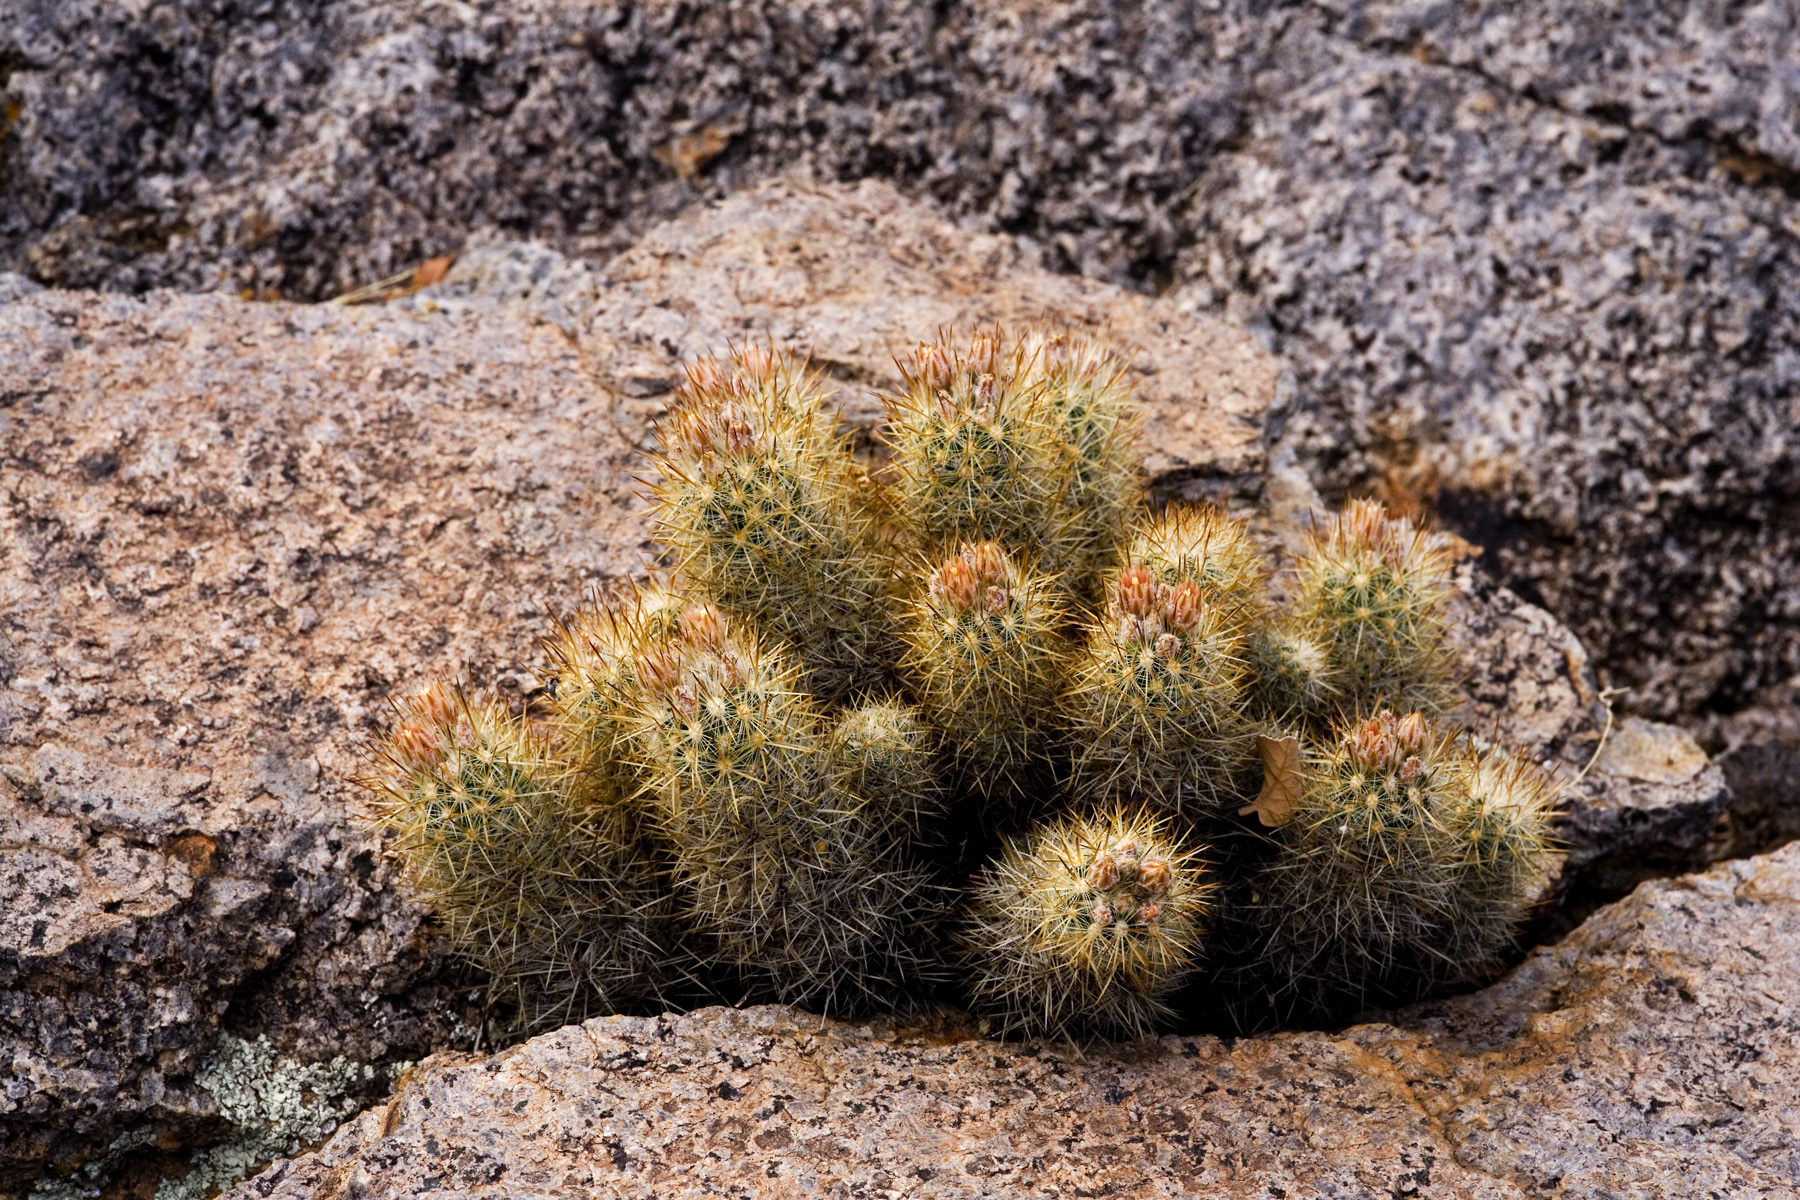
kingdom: Plantae
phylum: Tracheophyta
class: Magnoliopsida
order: Caryophyllales
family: Cactaceae
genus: Pelecyphora
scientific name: Pelecyphora sneedii
